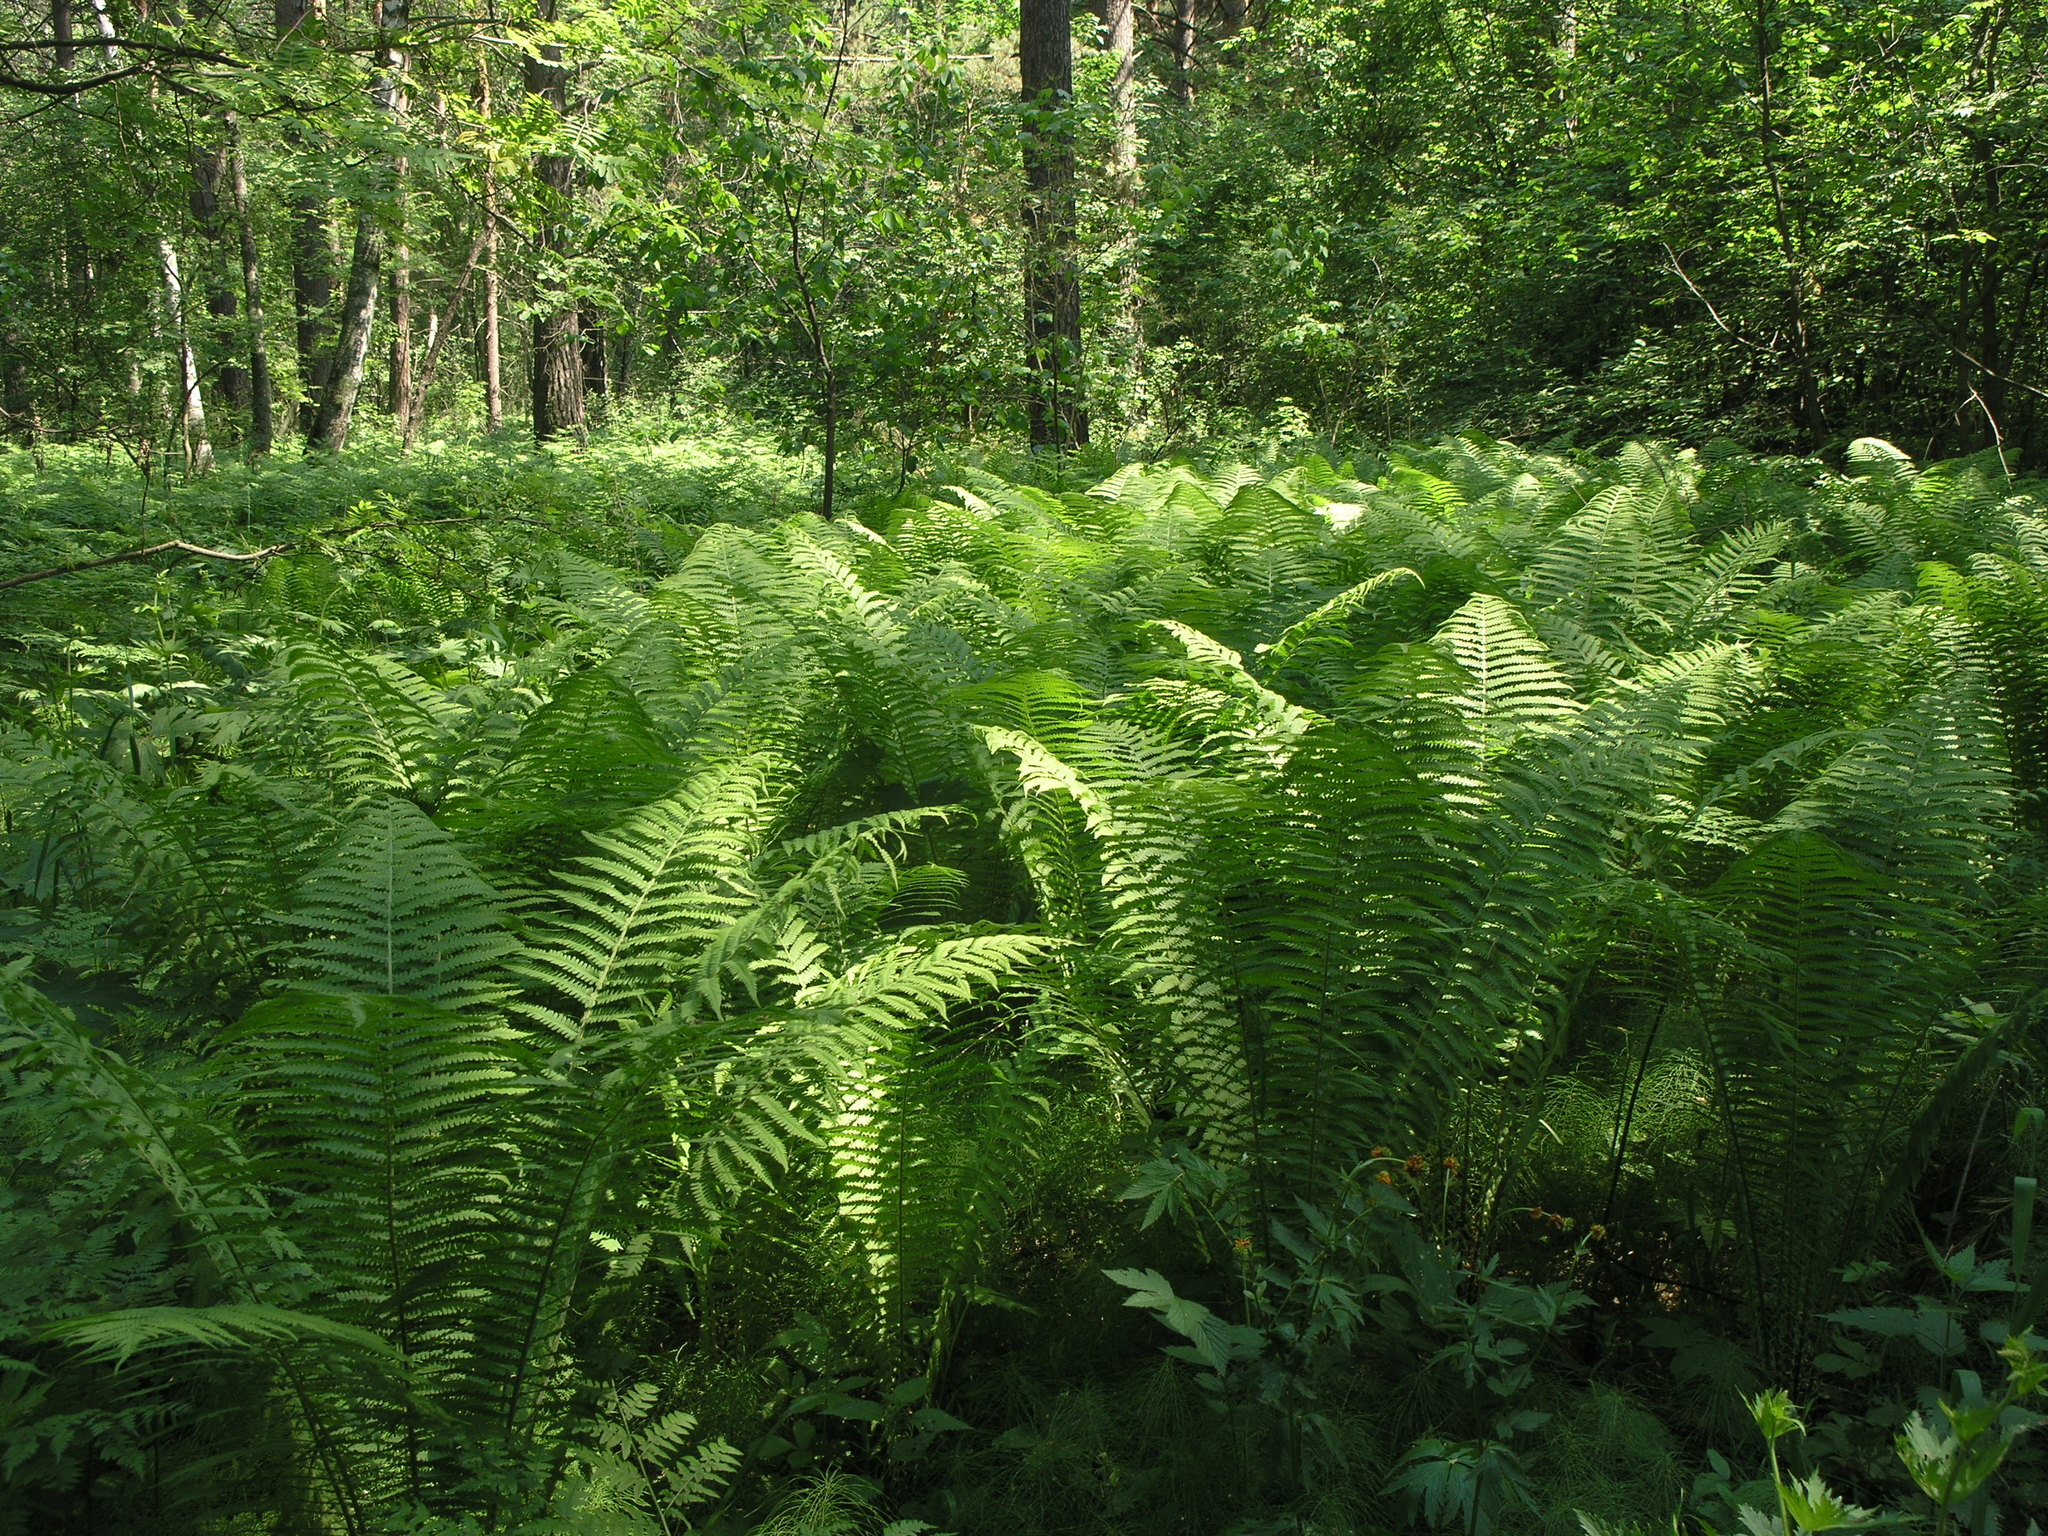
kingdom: Plantae
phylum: Tracheophyta
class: Polypodiopsida
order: Polypodiales
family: Onocleaceae
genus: Matteuccia
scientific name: Matteuccia struthiopteris
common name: Ostrich fern
